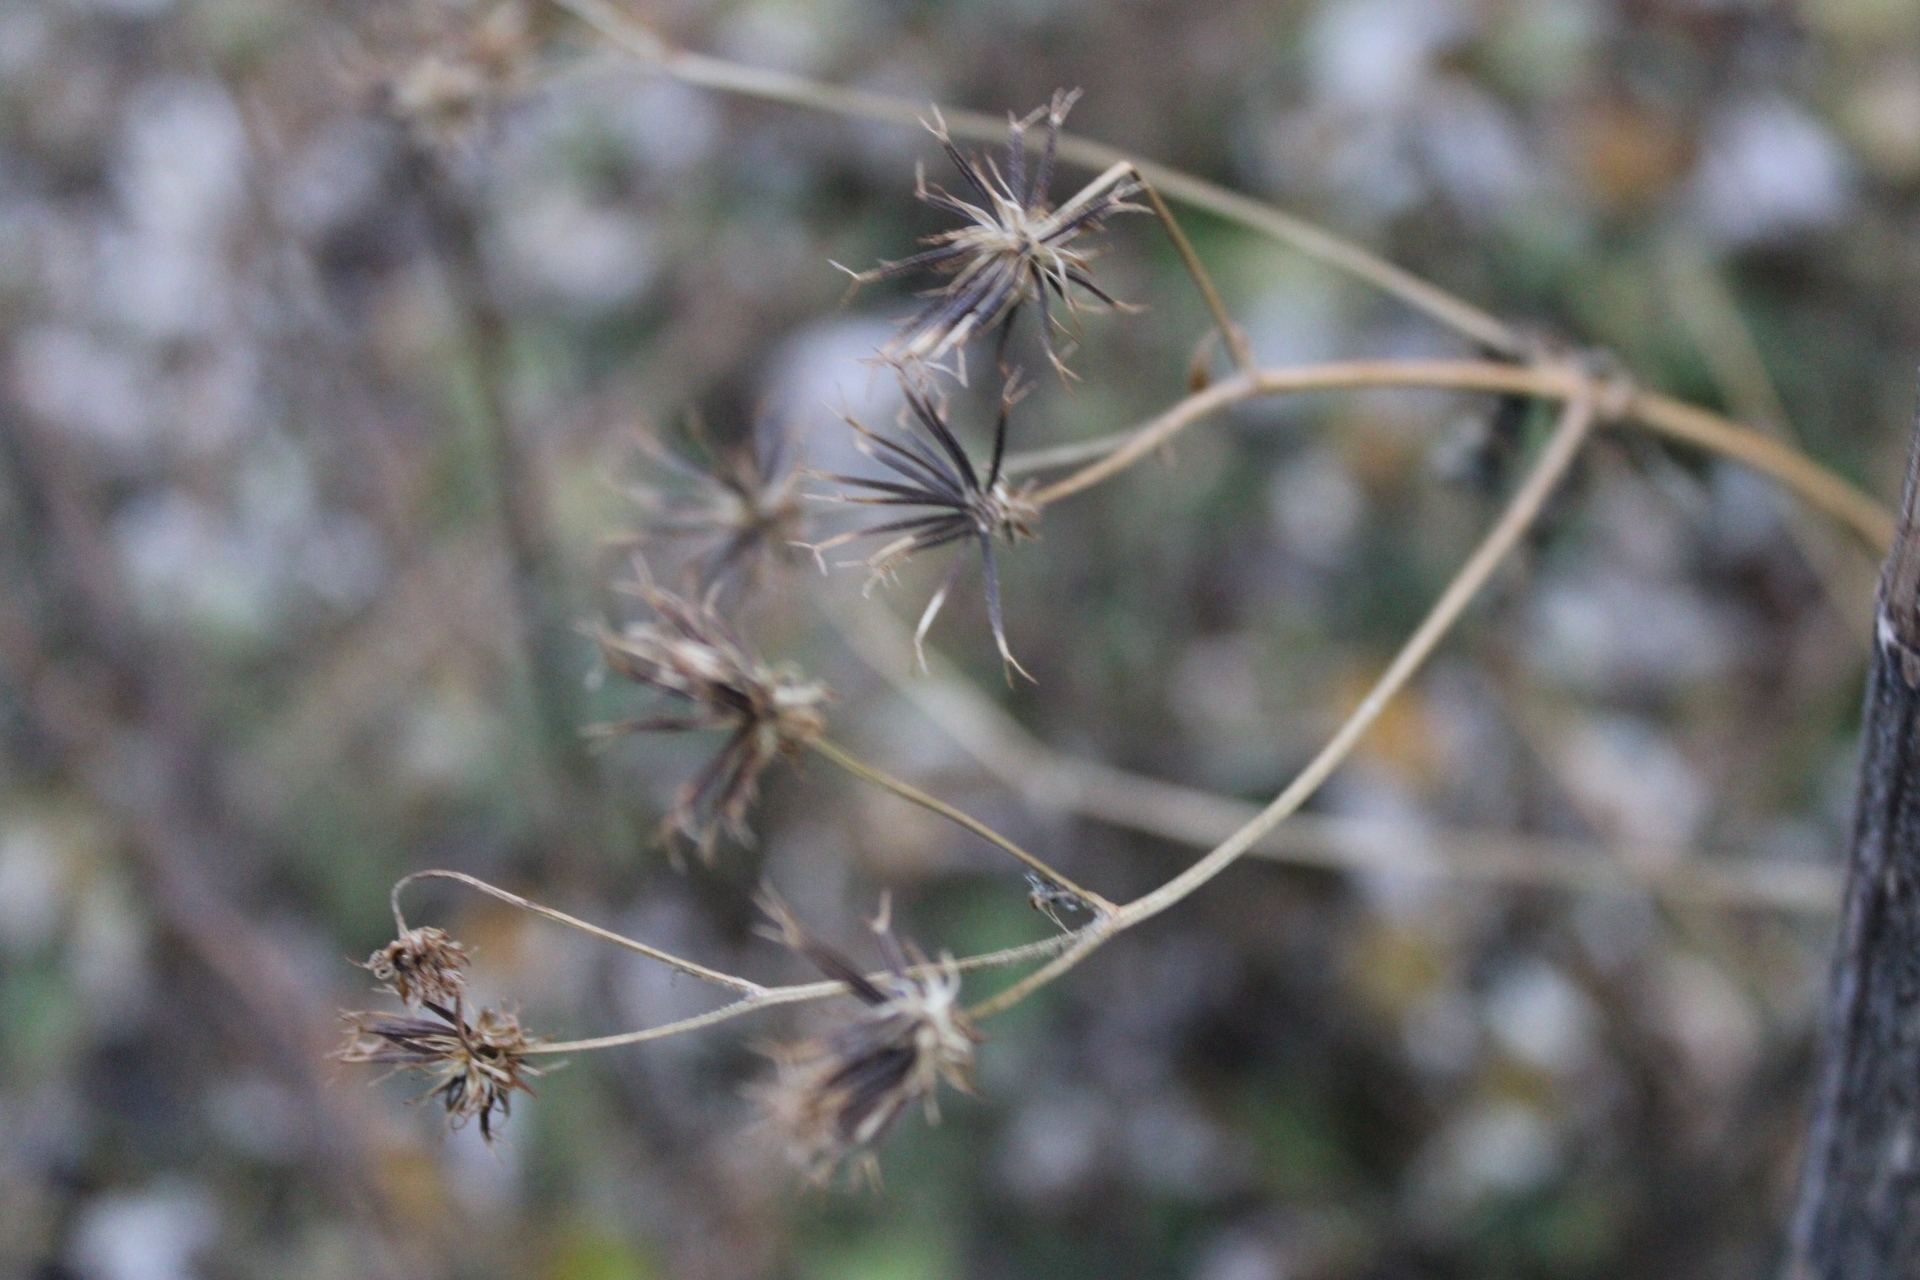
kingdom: Plantae
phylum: Tracheophyta
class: Magnoliopsida
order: Asterales
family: Asteraceae
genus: Bidens
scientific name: Bidens alba
